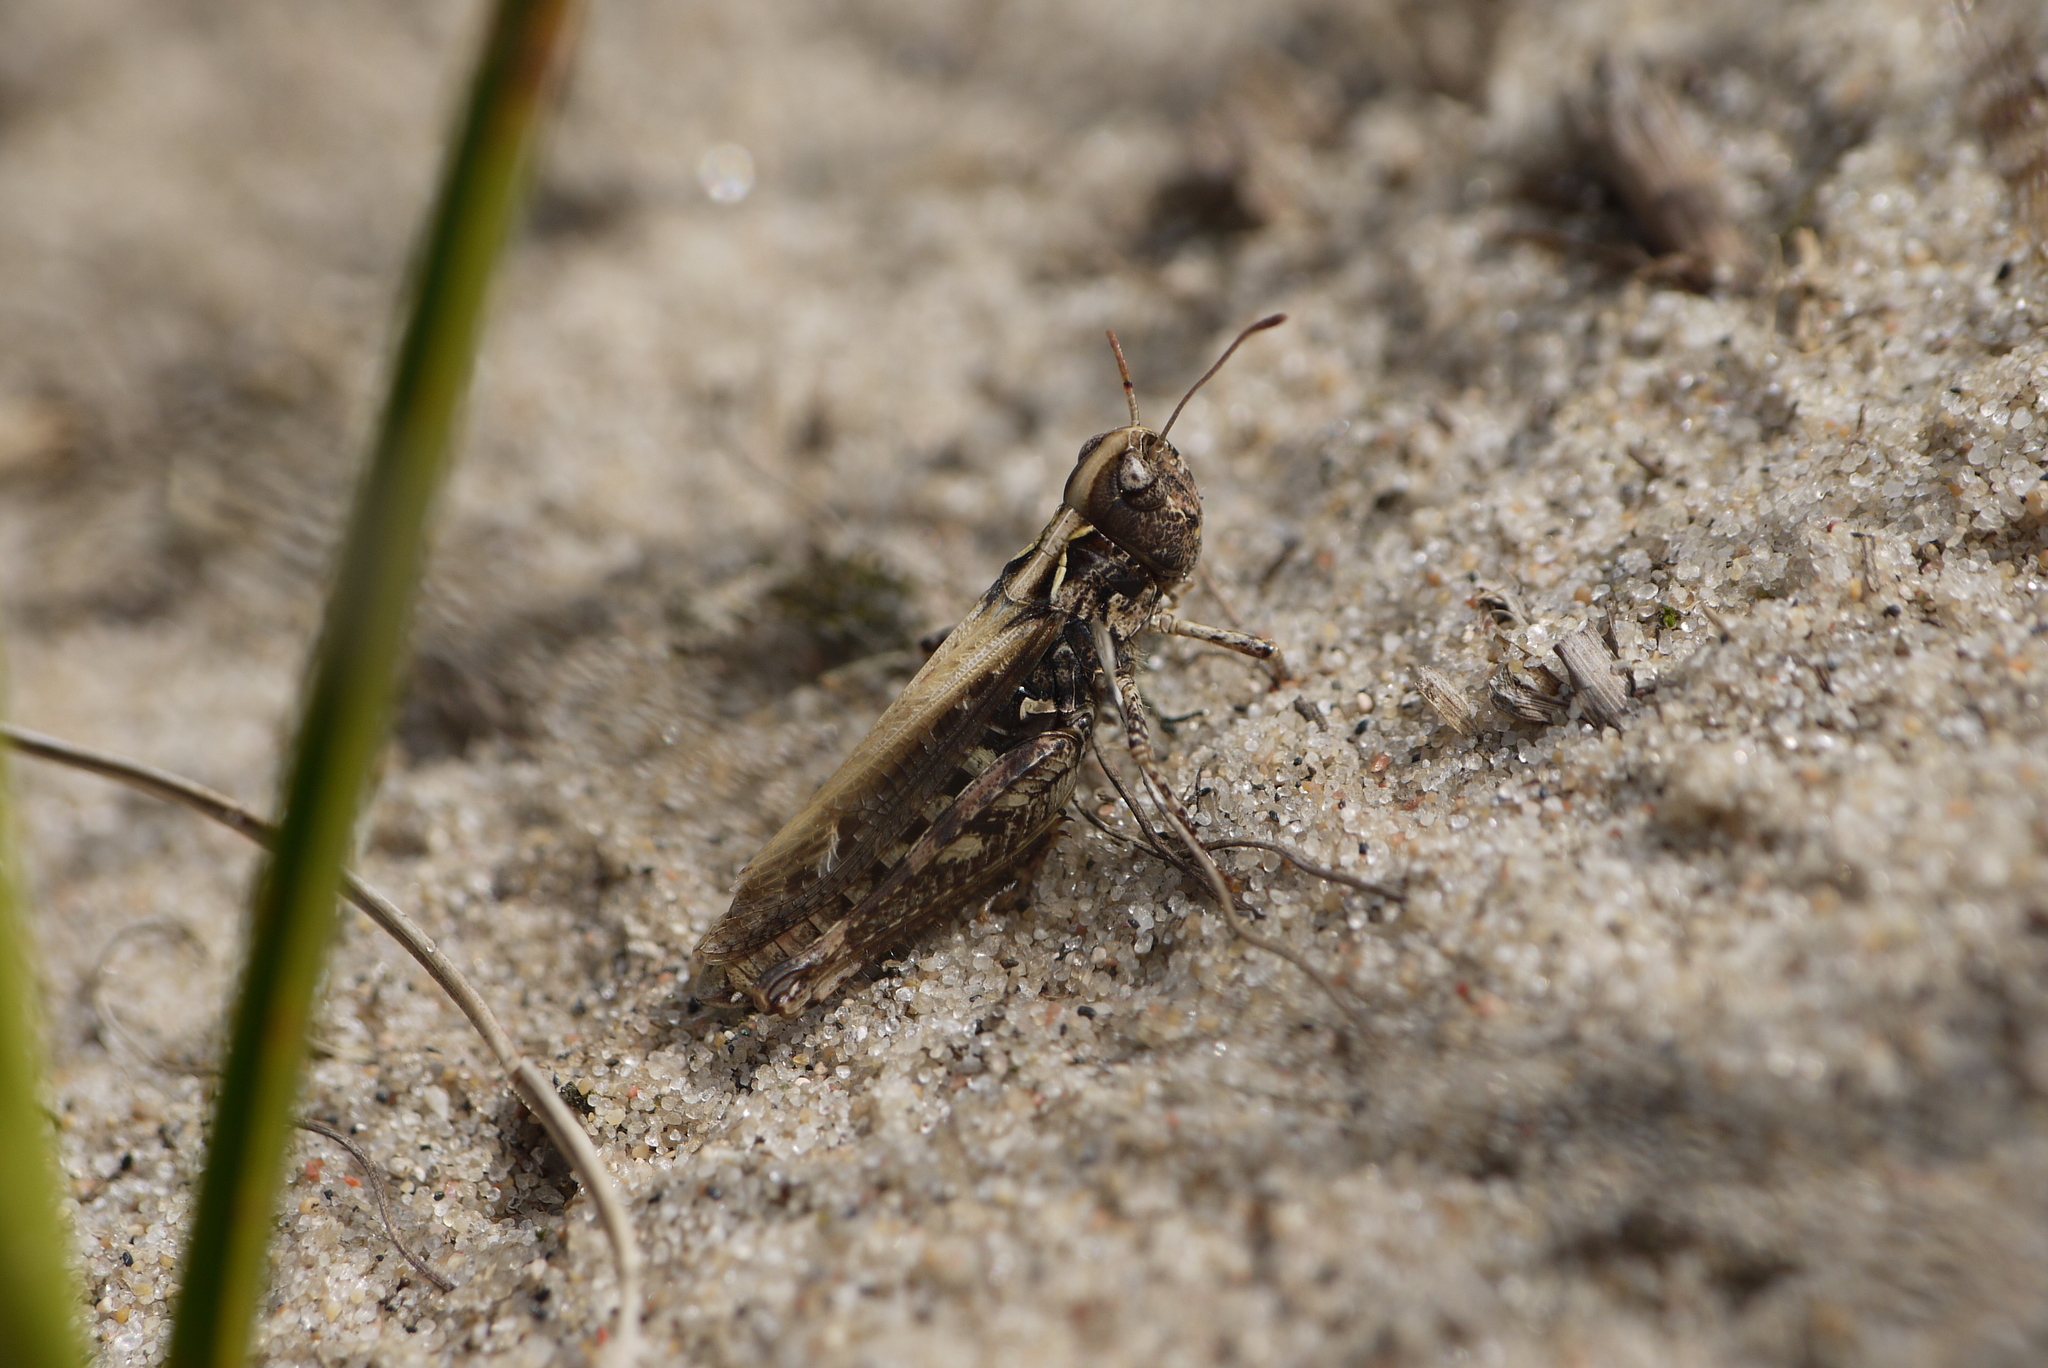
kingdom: Animalia
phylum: Arthropoda
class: Insecta
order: Orthoptera
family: Acrididae
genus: Myrmeleotettix
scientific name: Myrmeleotettix maculatus
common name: Mottled grasshopper
